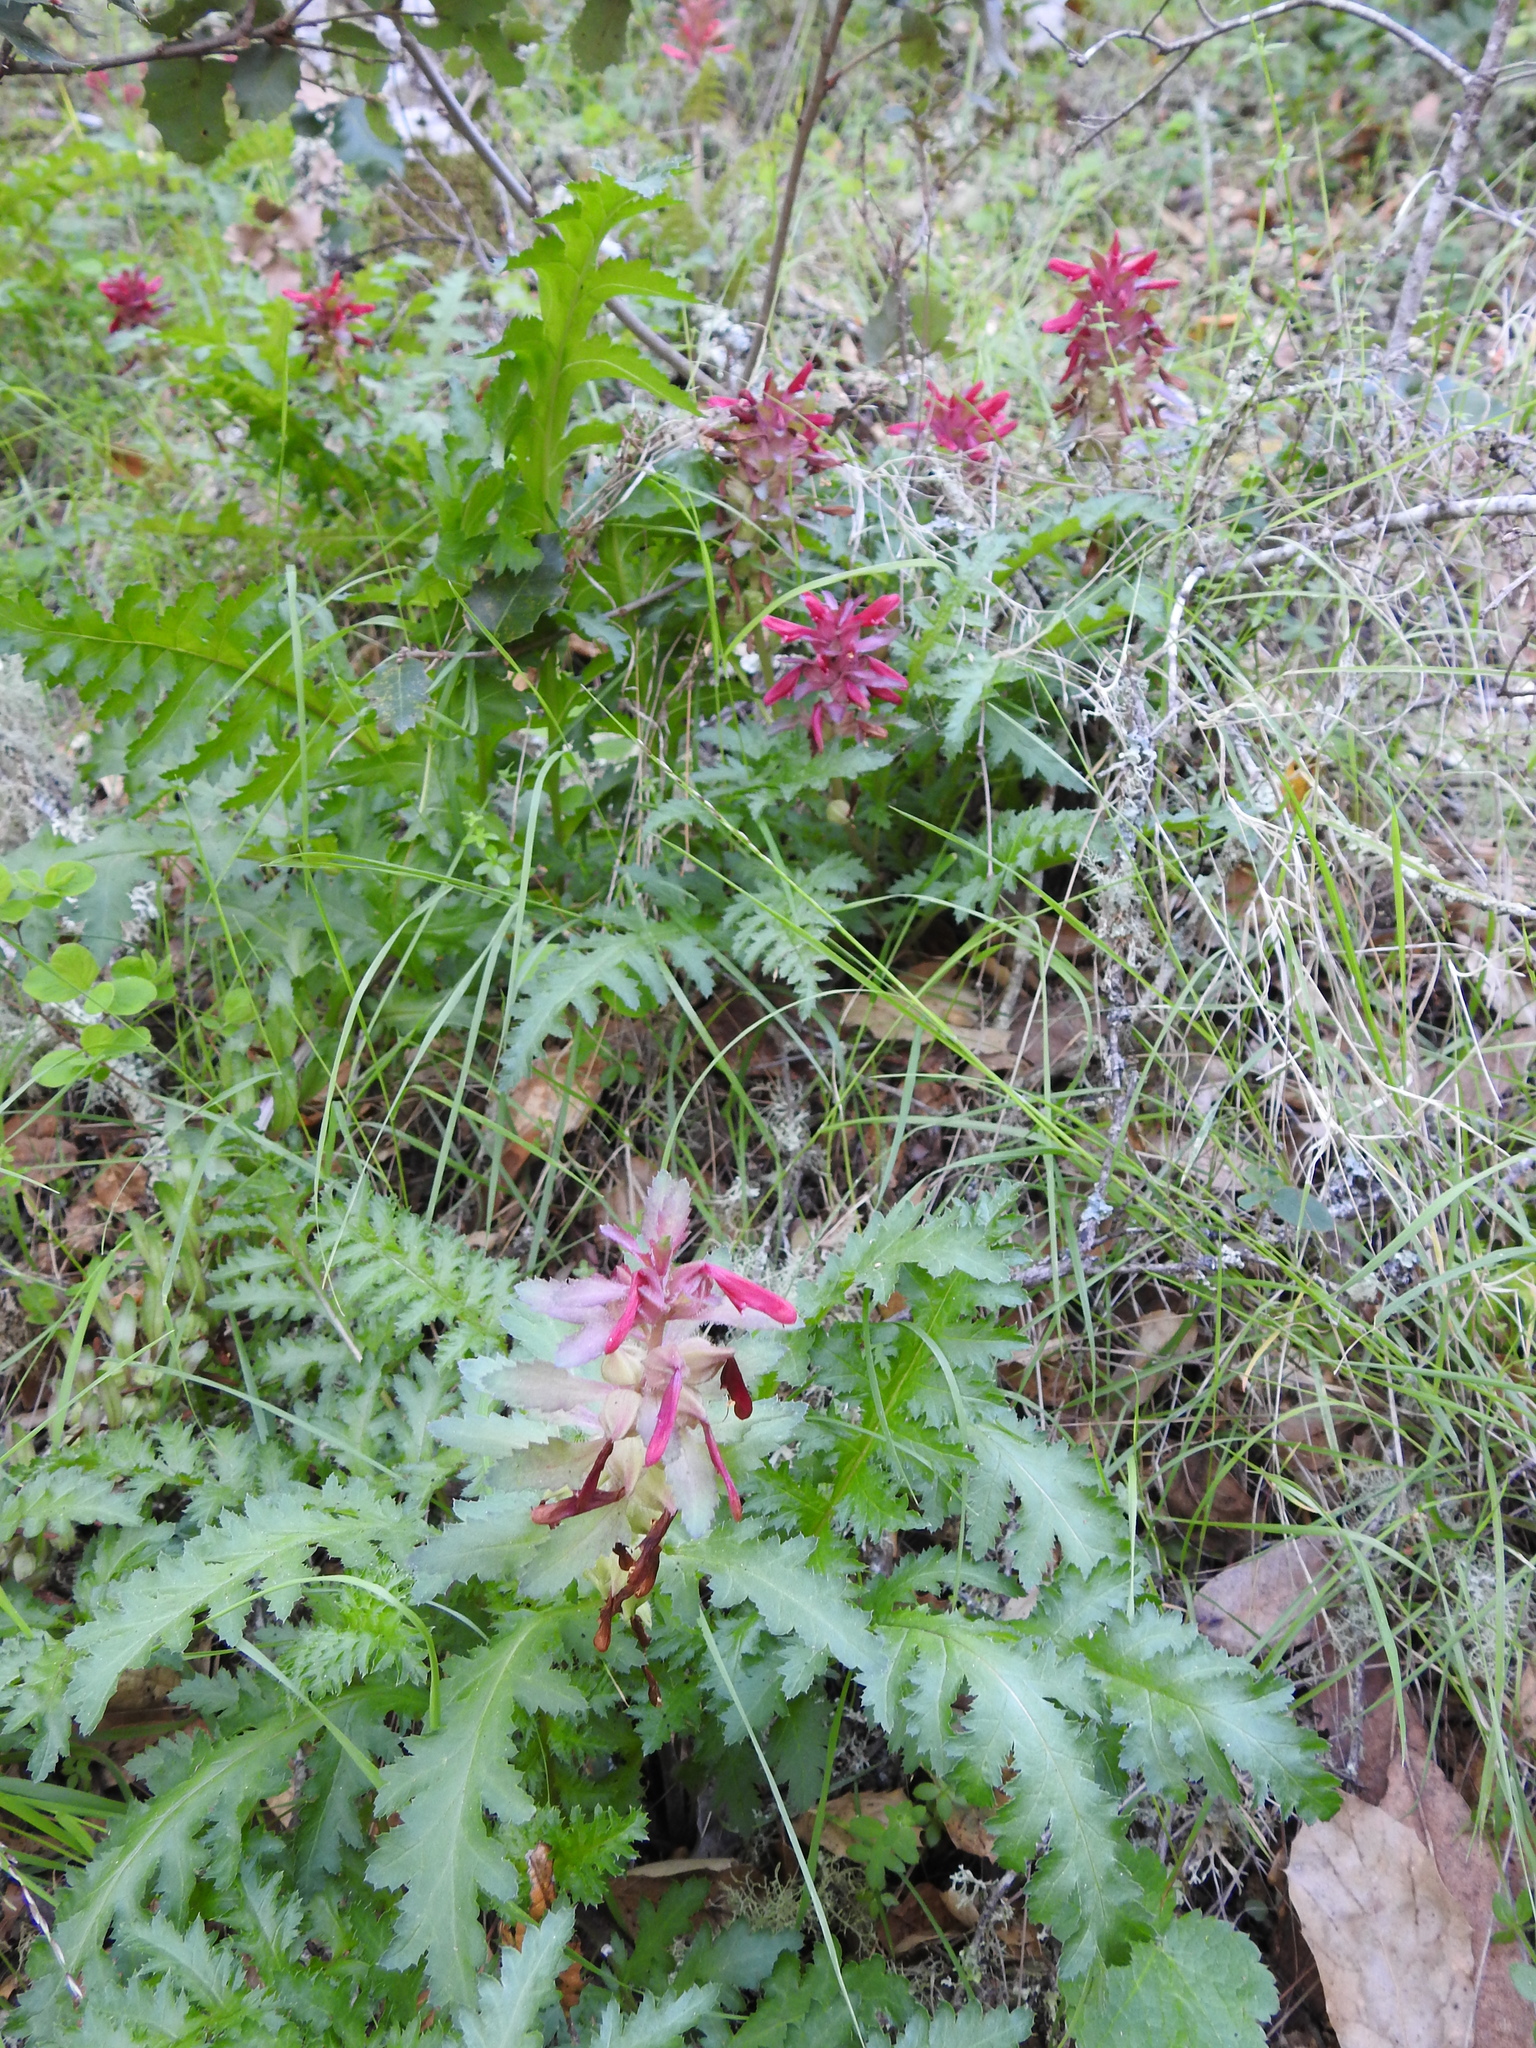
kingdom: Plantae
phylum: Tracheophyta
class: Magnoliopsida
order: Lamiales
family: Orobanchaceae
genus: Pedicularis
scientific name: Pedicularis densiflora
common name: Indian warrior
